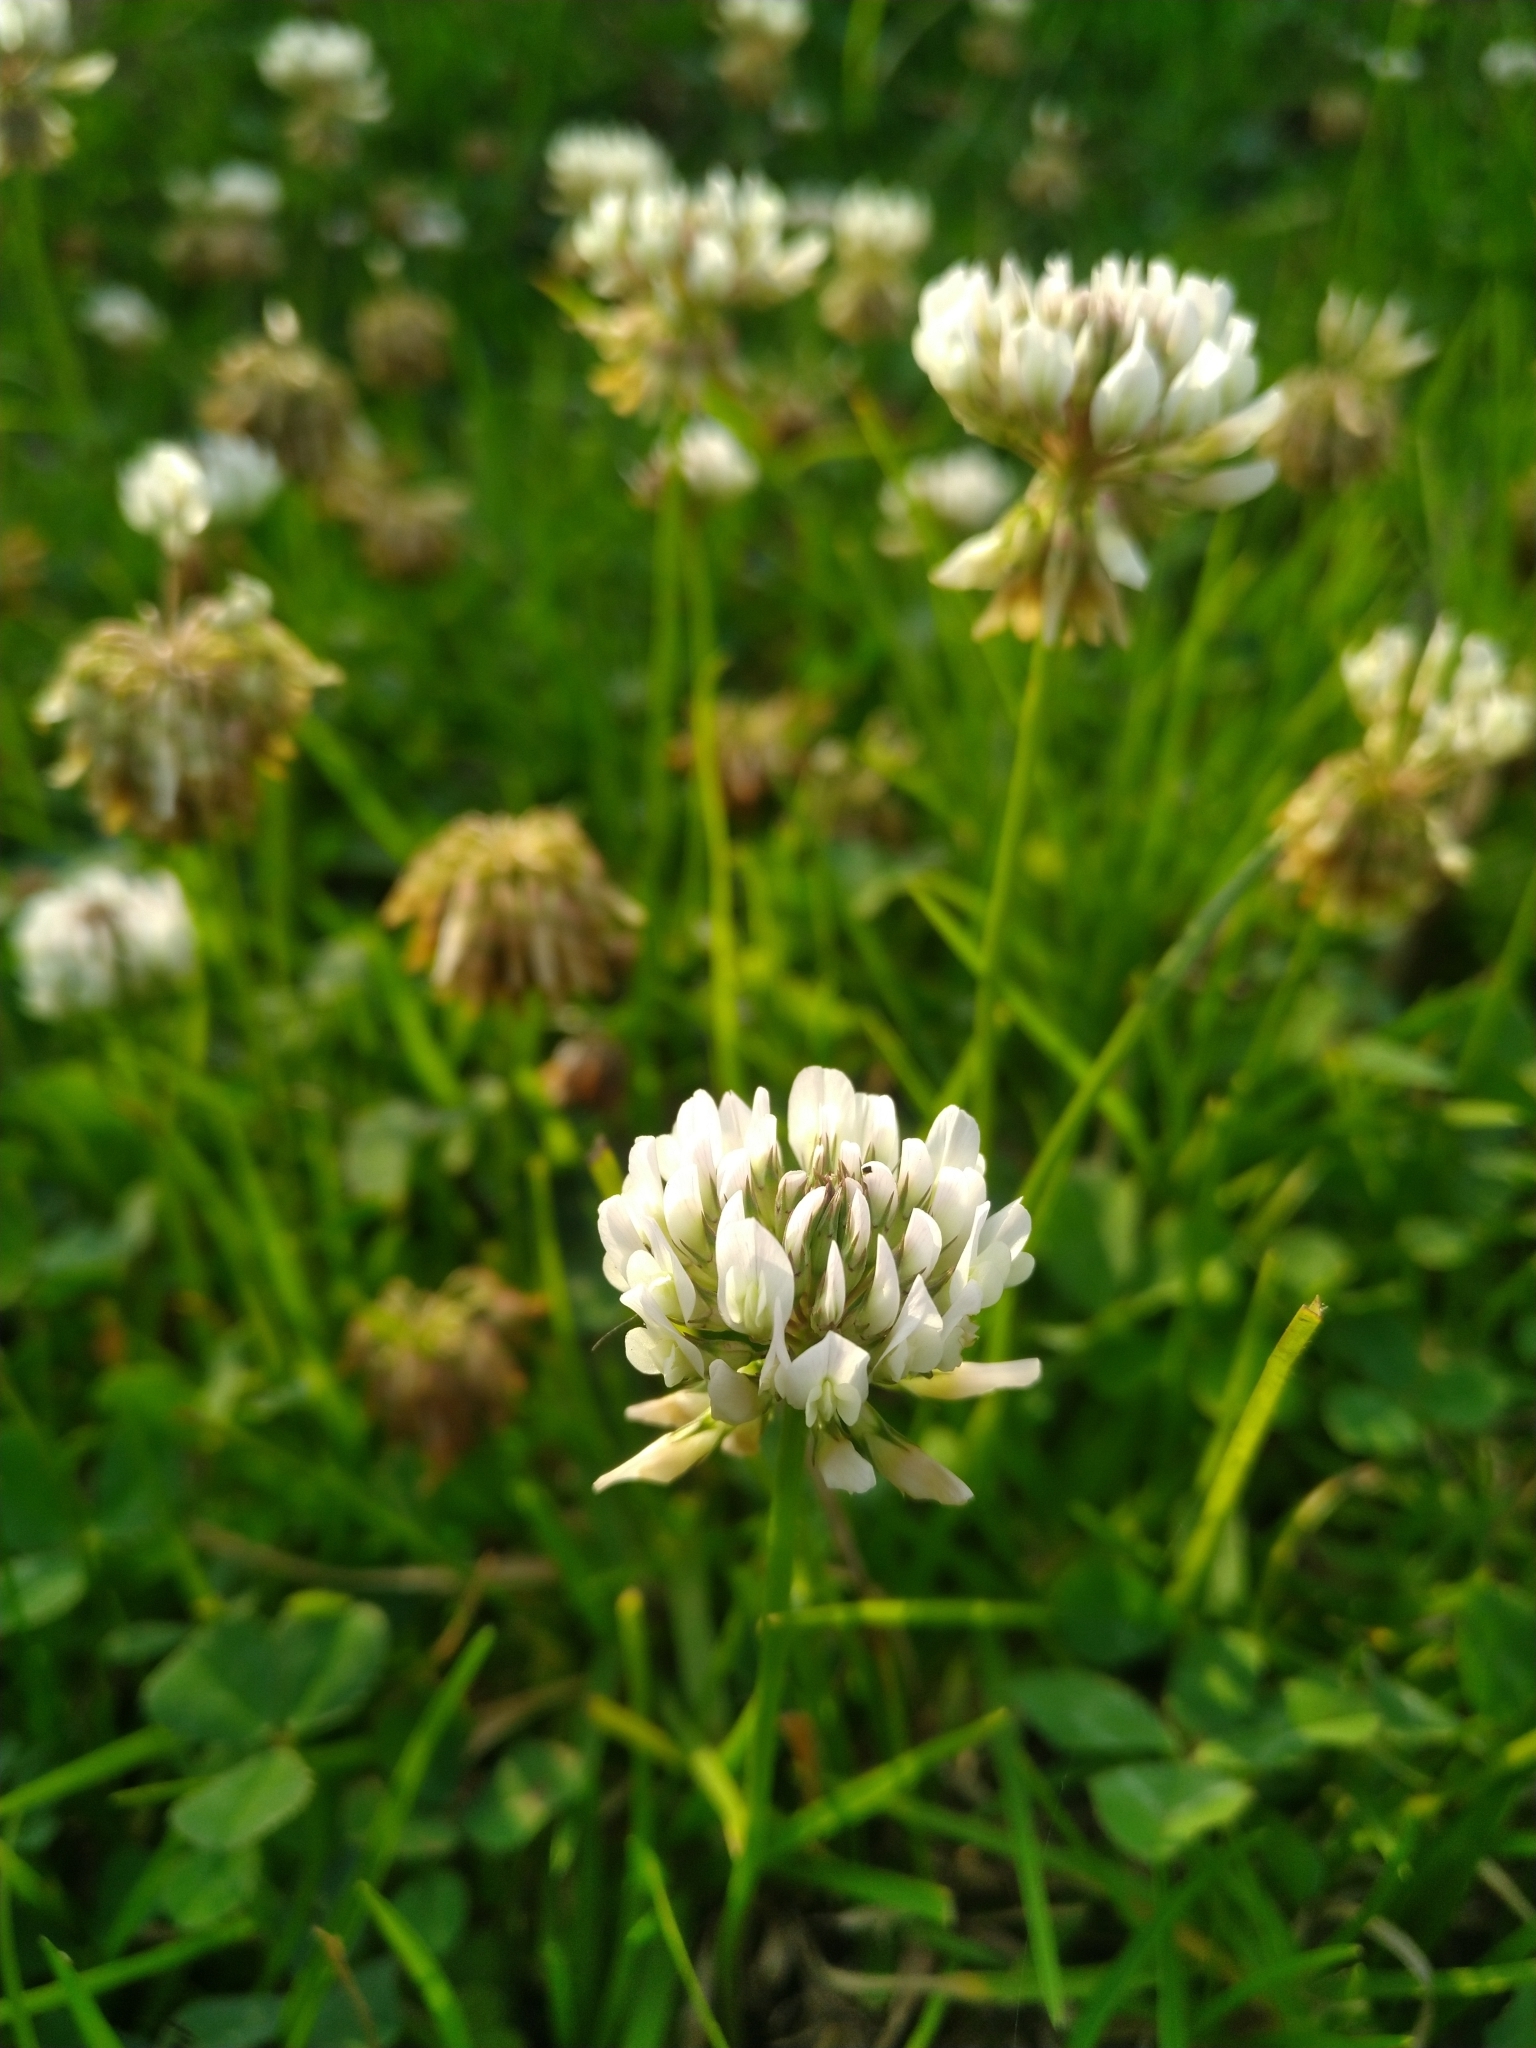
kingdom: Plantae
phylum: Tracheophyta
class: Magnoliopsida
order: Fabales
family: Fabaceae
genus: Trifolium
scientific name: Trifolium repens
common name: White clover
